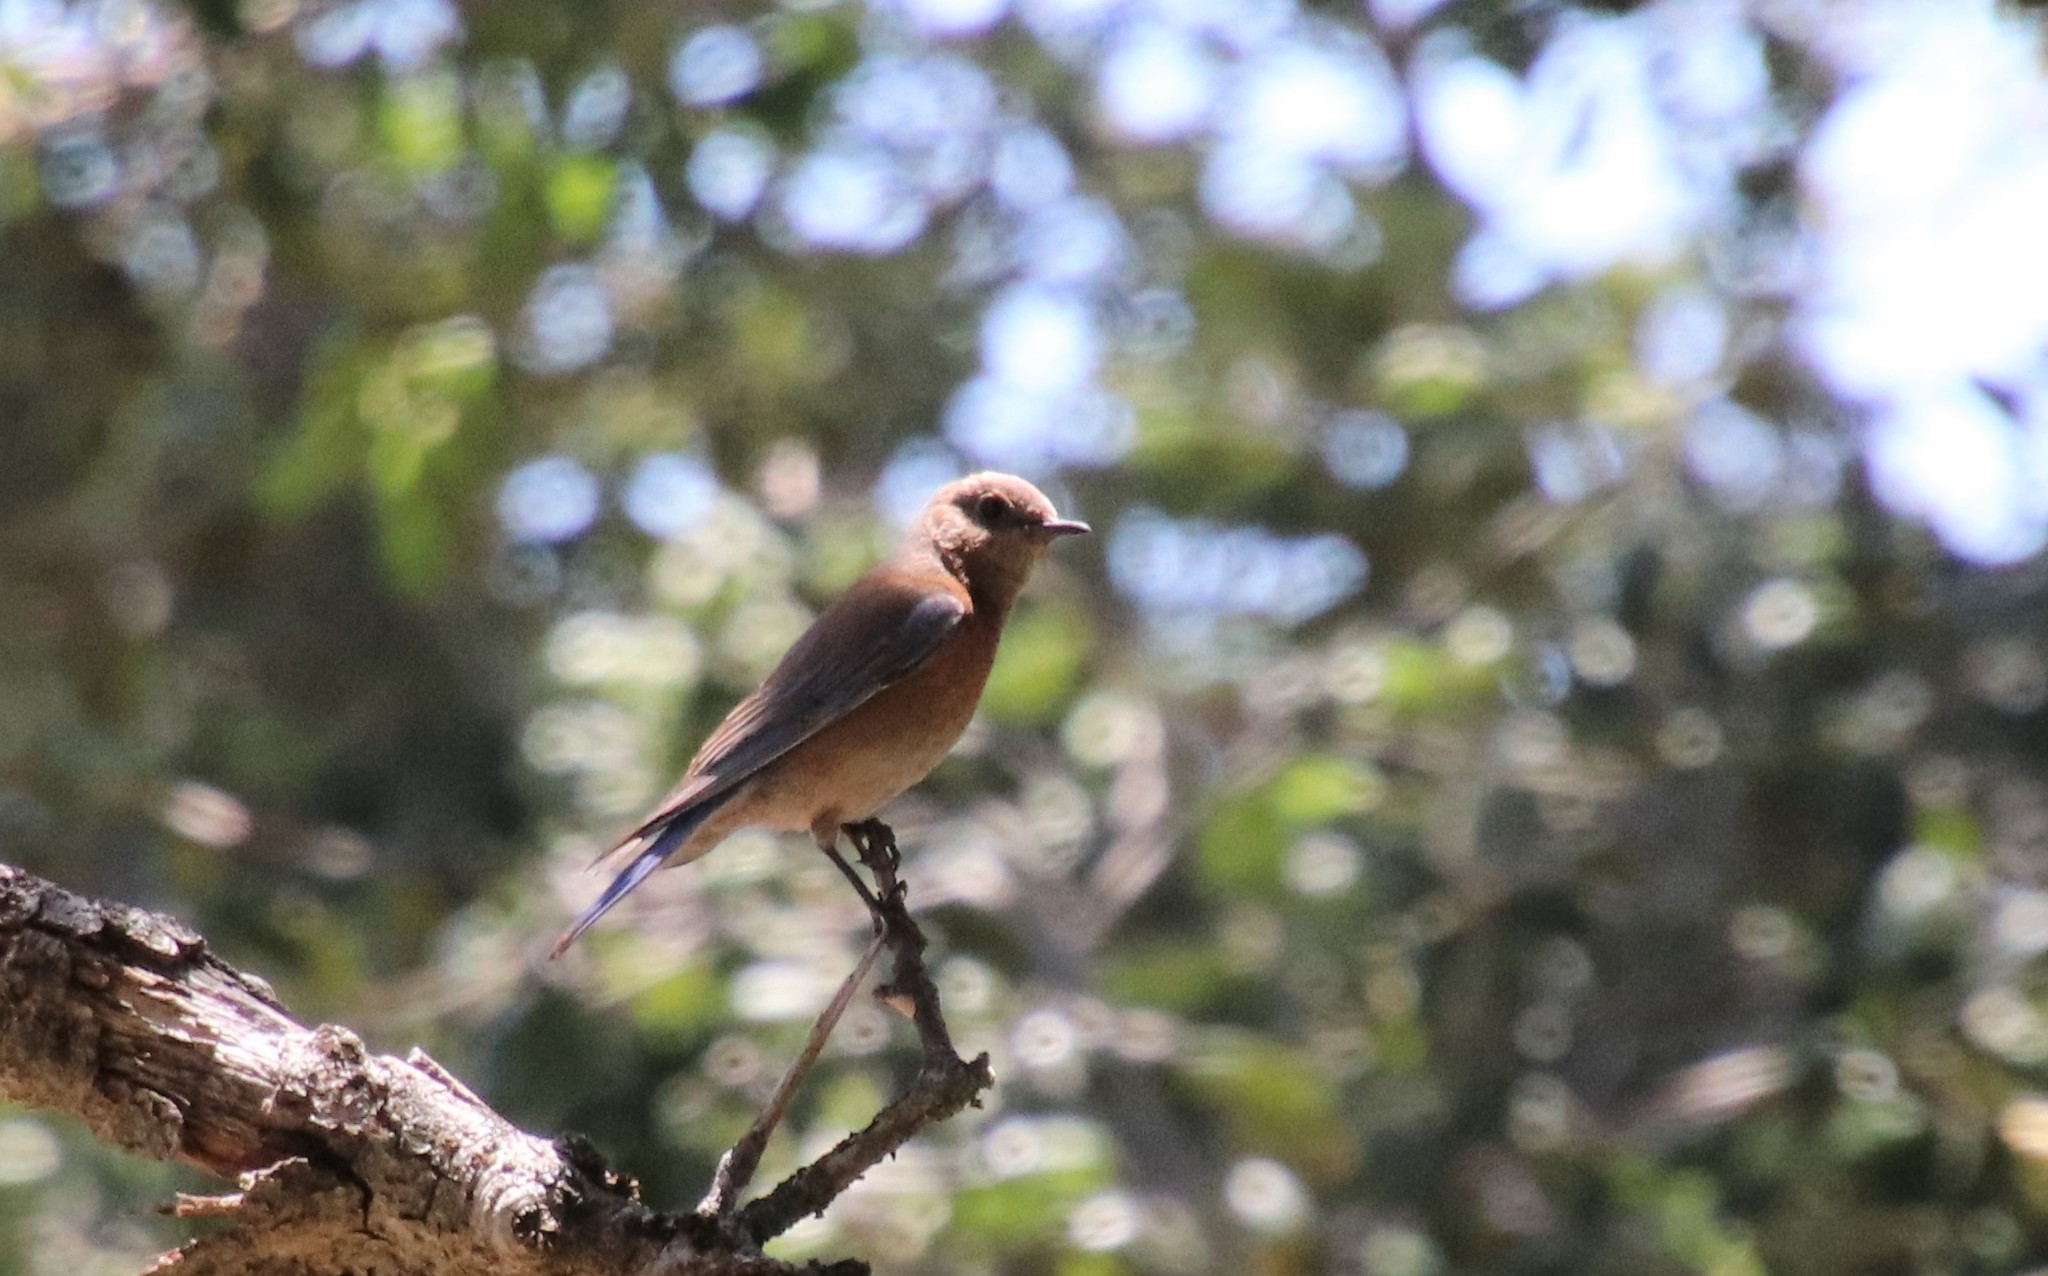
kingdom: Animalia
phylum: Chordata
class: Aves
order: Passeriformes
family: Turdidae
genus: Sialia
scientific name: Sialia mexicana
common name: Western bluebird
